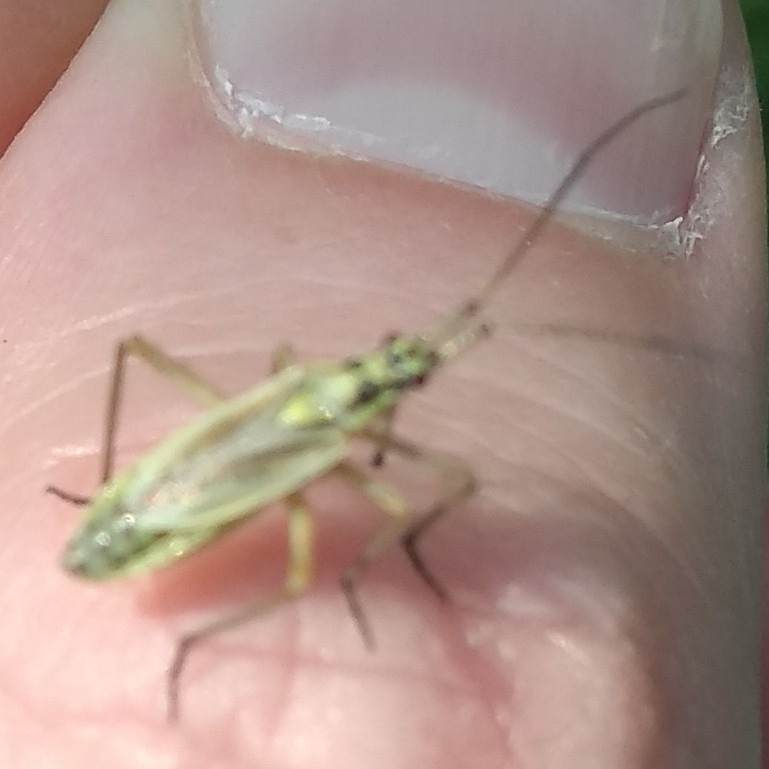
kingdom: Animalia
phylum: Arthropoda
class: Insecta
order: Hemiptera
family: Miridae
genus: Leptopterna
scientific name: Leptopterna dolabrata
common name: Meadow plant bug
